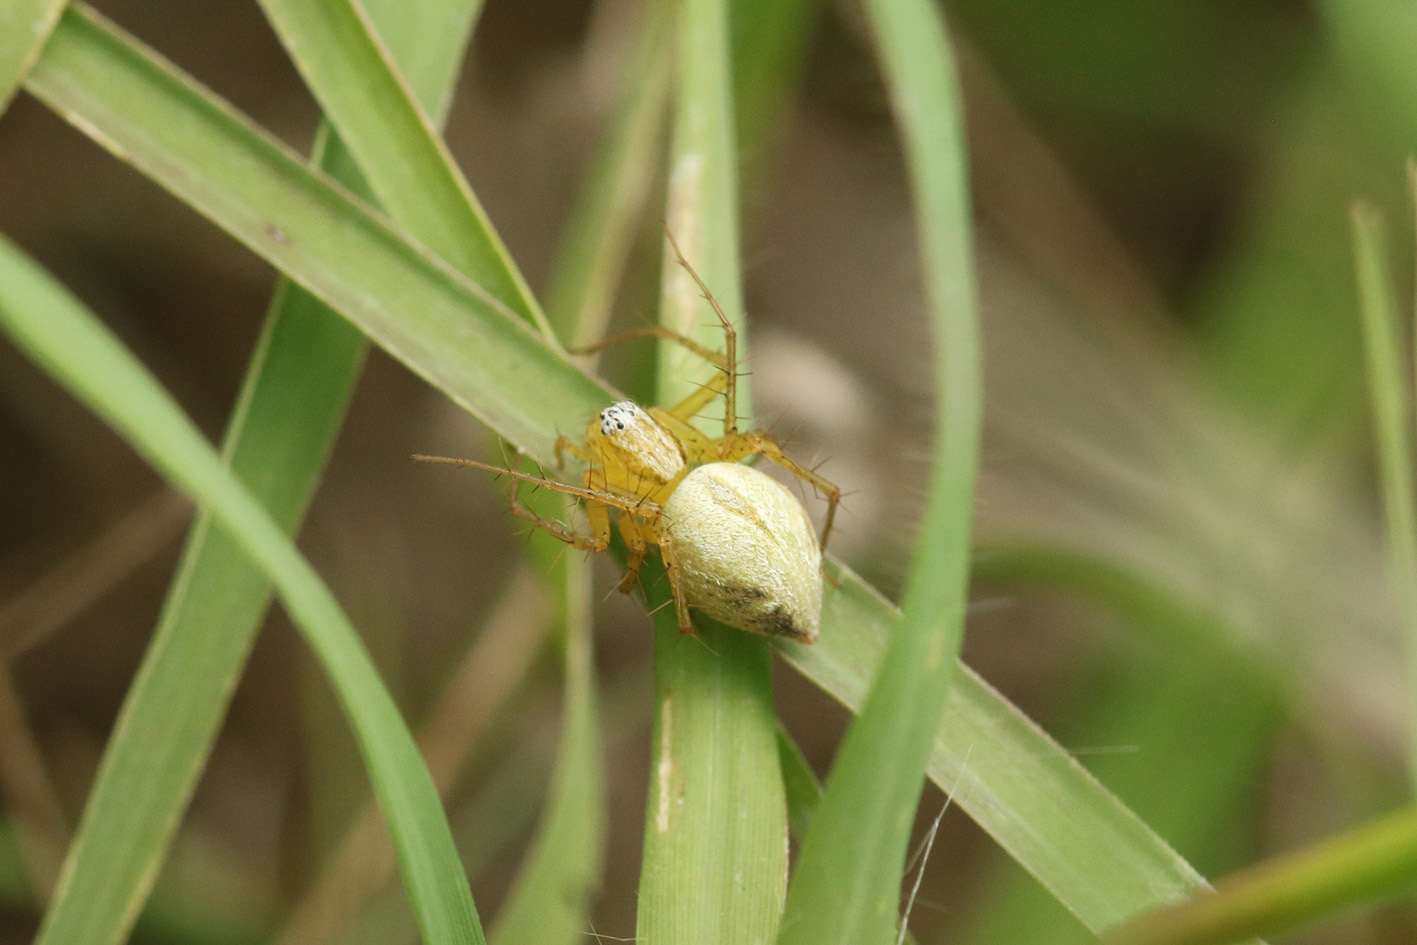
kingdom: Animalia
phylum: Arthropoda
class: Arachnida
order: Araneae
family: Oxyopidae
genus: Oxyopes
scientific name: Oxyopes salticus
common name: Lynx spiders
